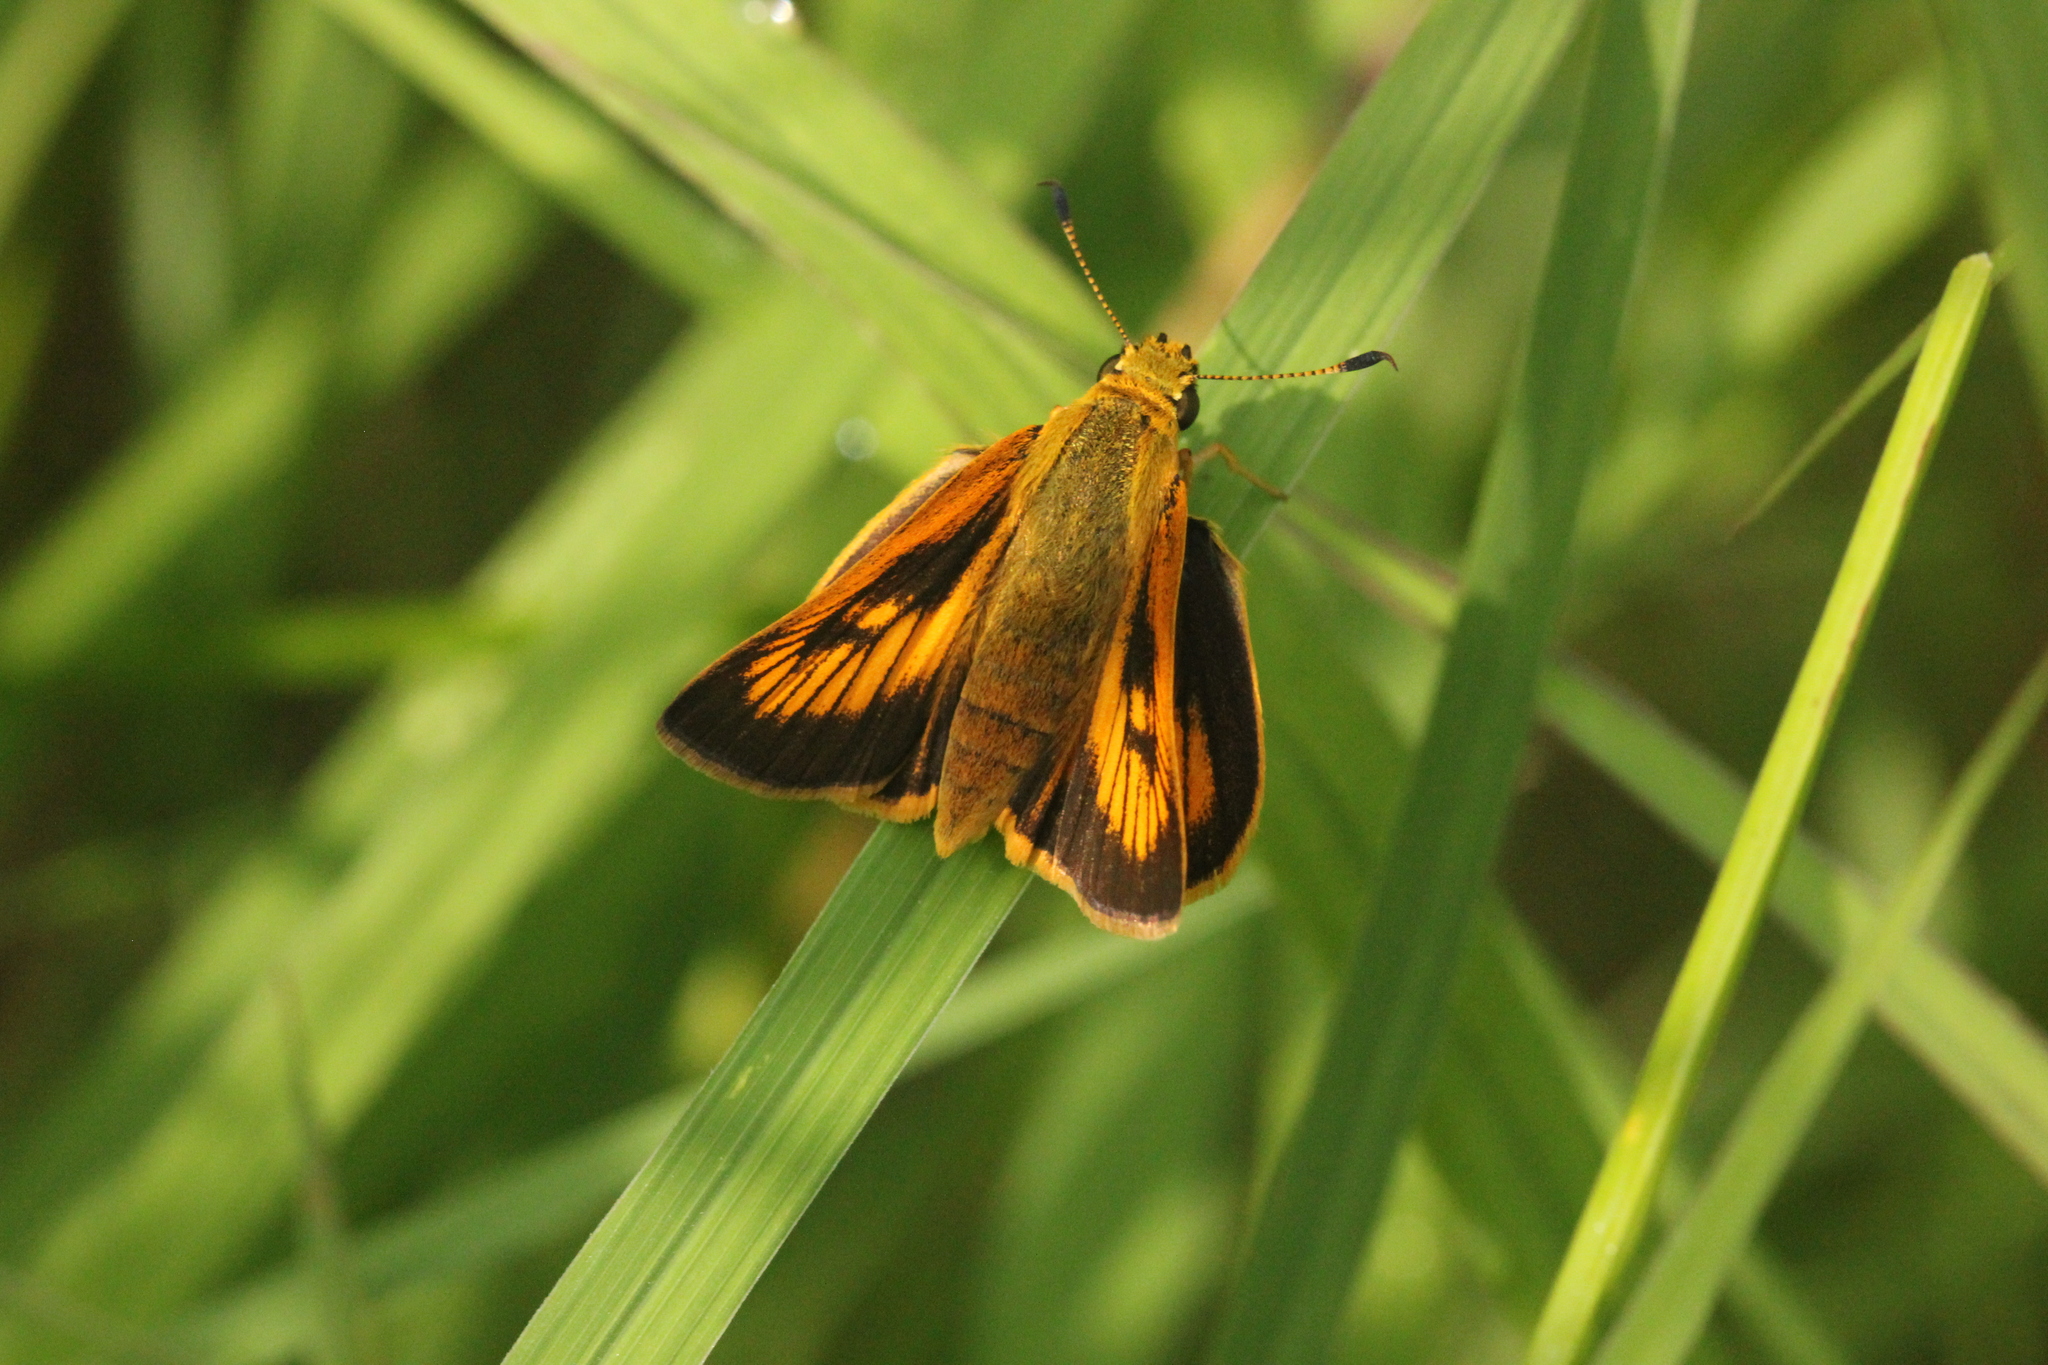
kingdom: Animalia
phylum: Arthropoda
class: Insecta
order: Lepidoptera
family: Hesperiidae
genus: Atrytone
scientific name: Atrytone delaware
